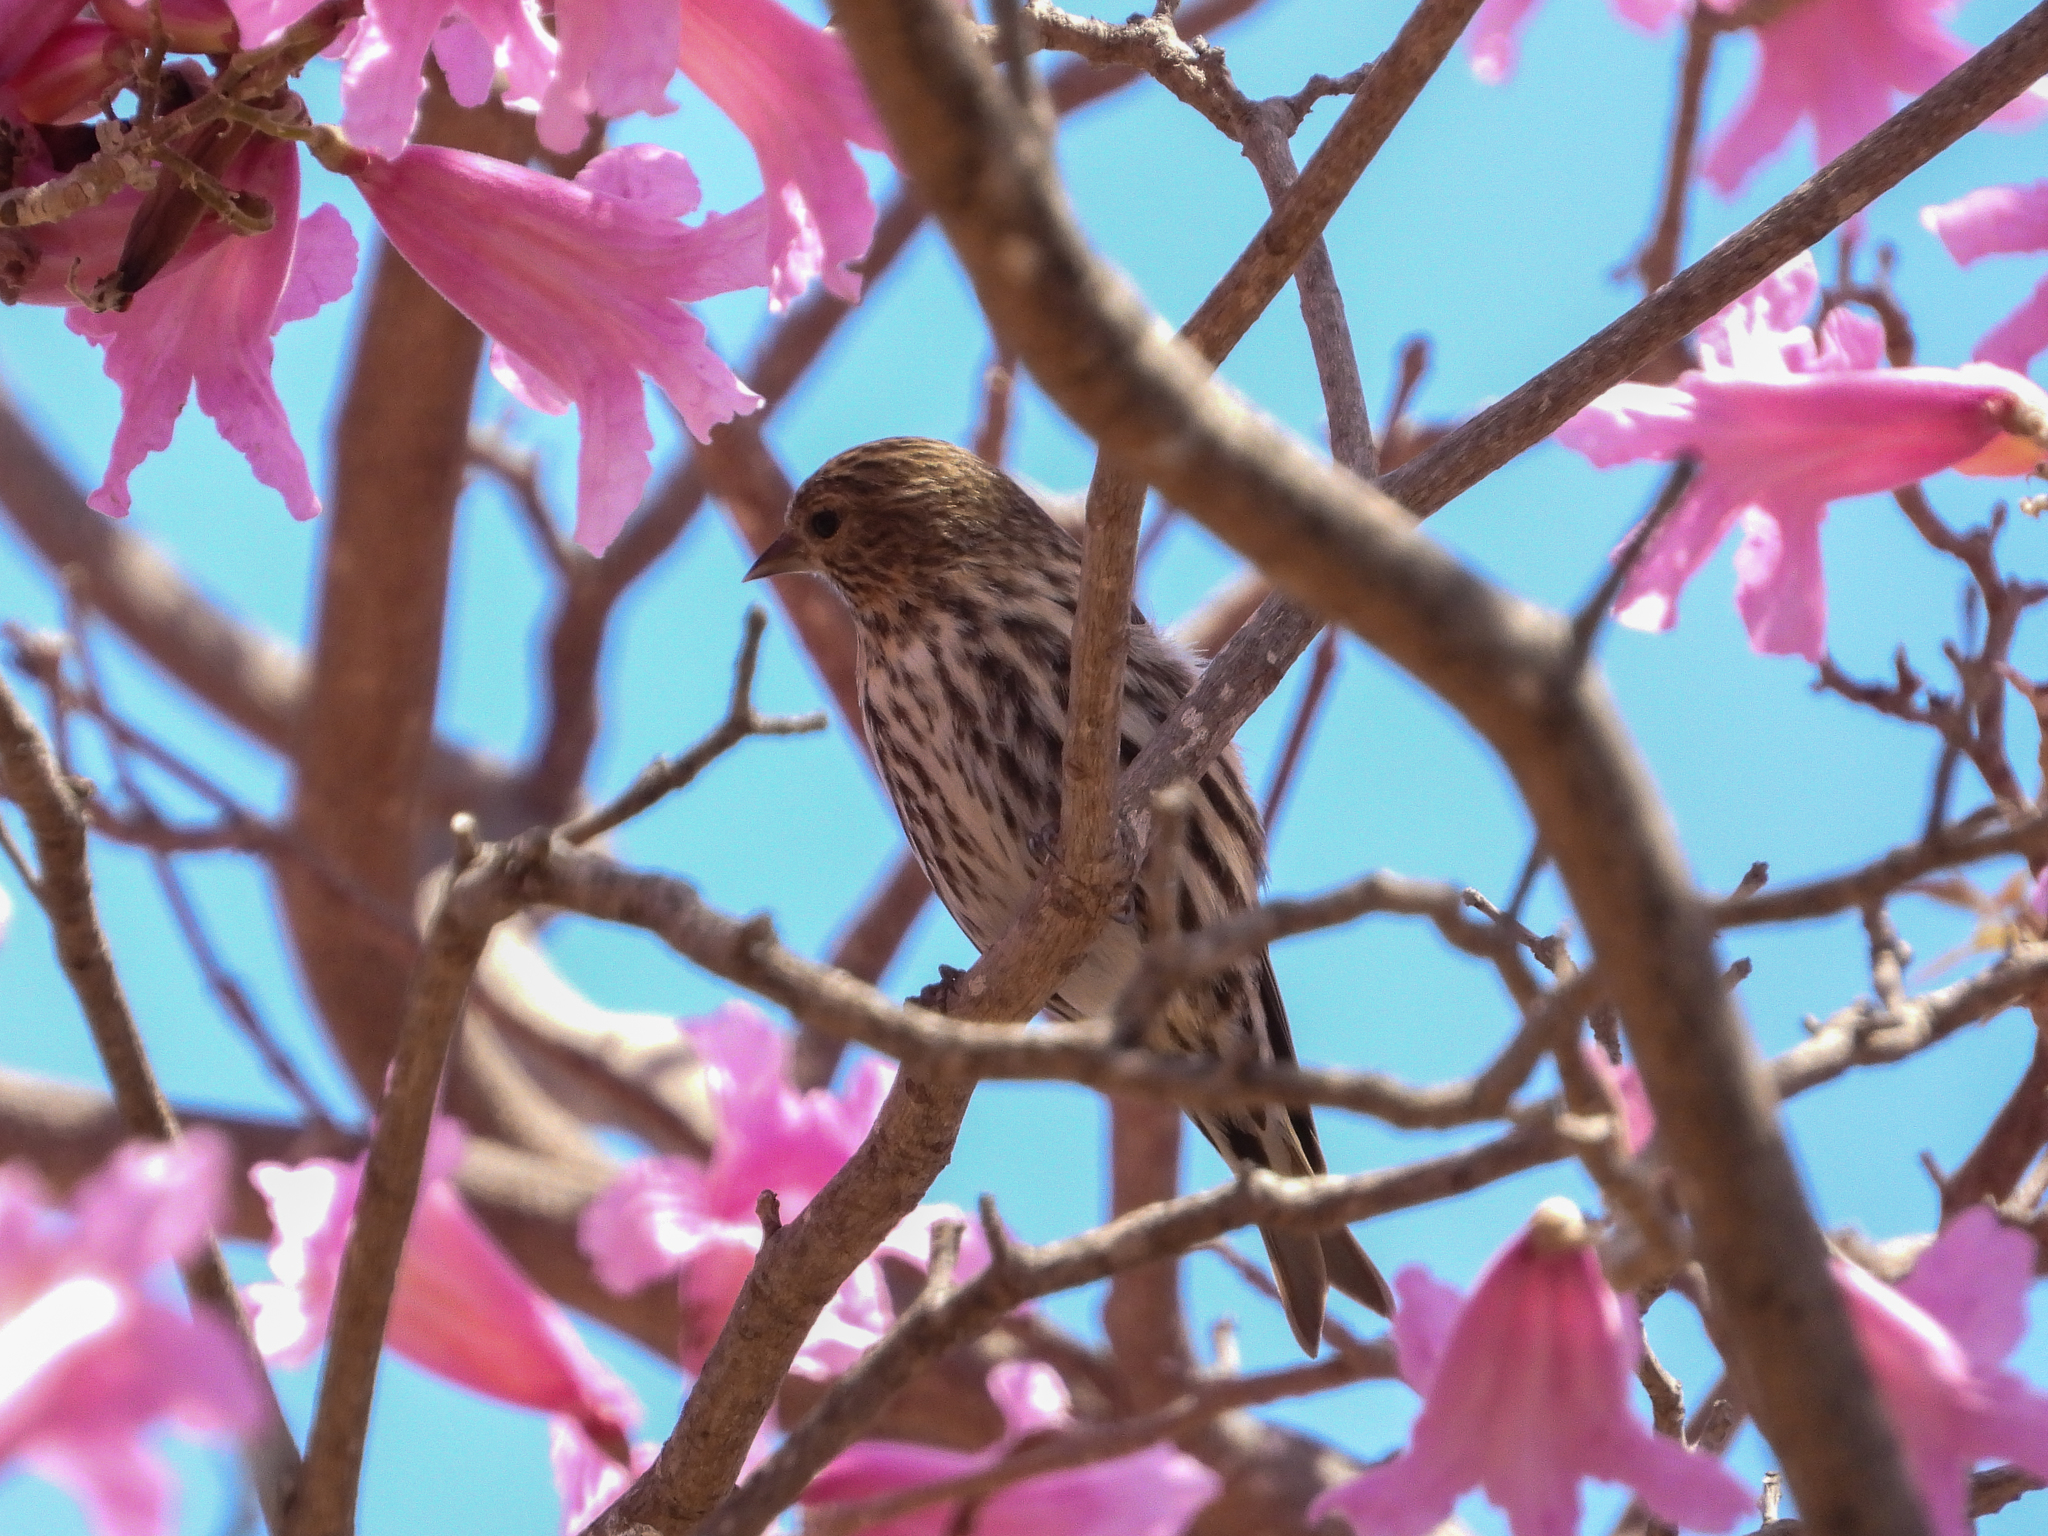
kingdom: Animalia
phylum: Chordata
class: Aves
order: Passeriformes
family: Fringillidae
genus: Spinus
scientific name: Spinus pinus
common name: Pine siskin
